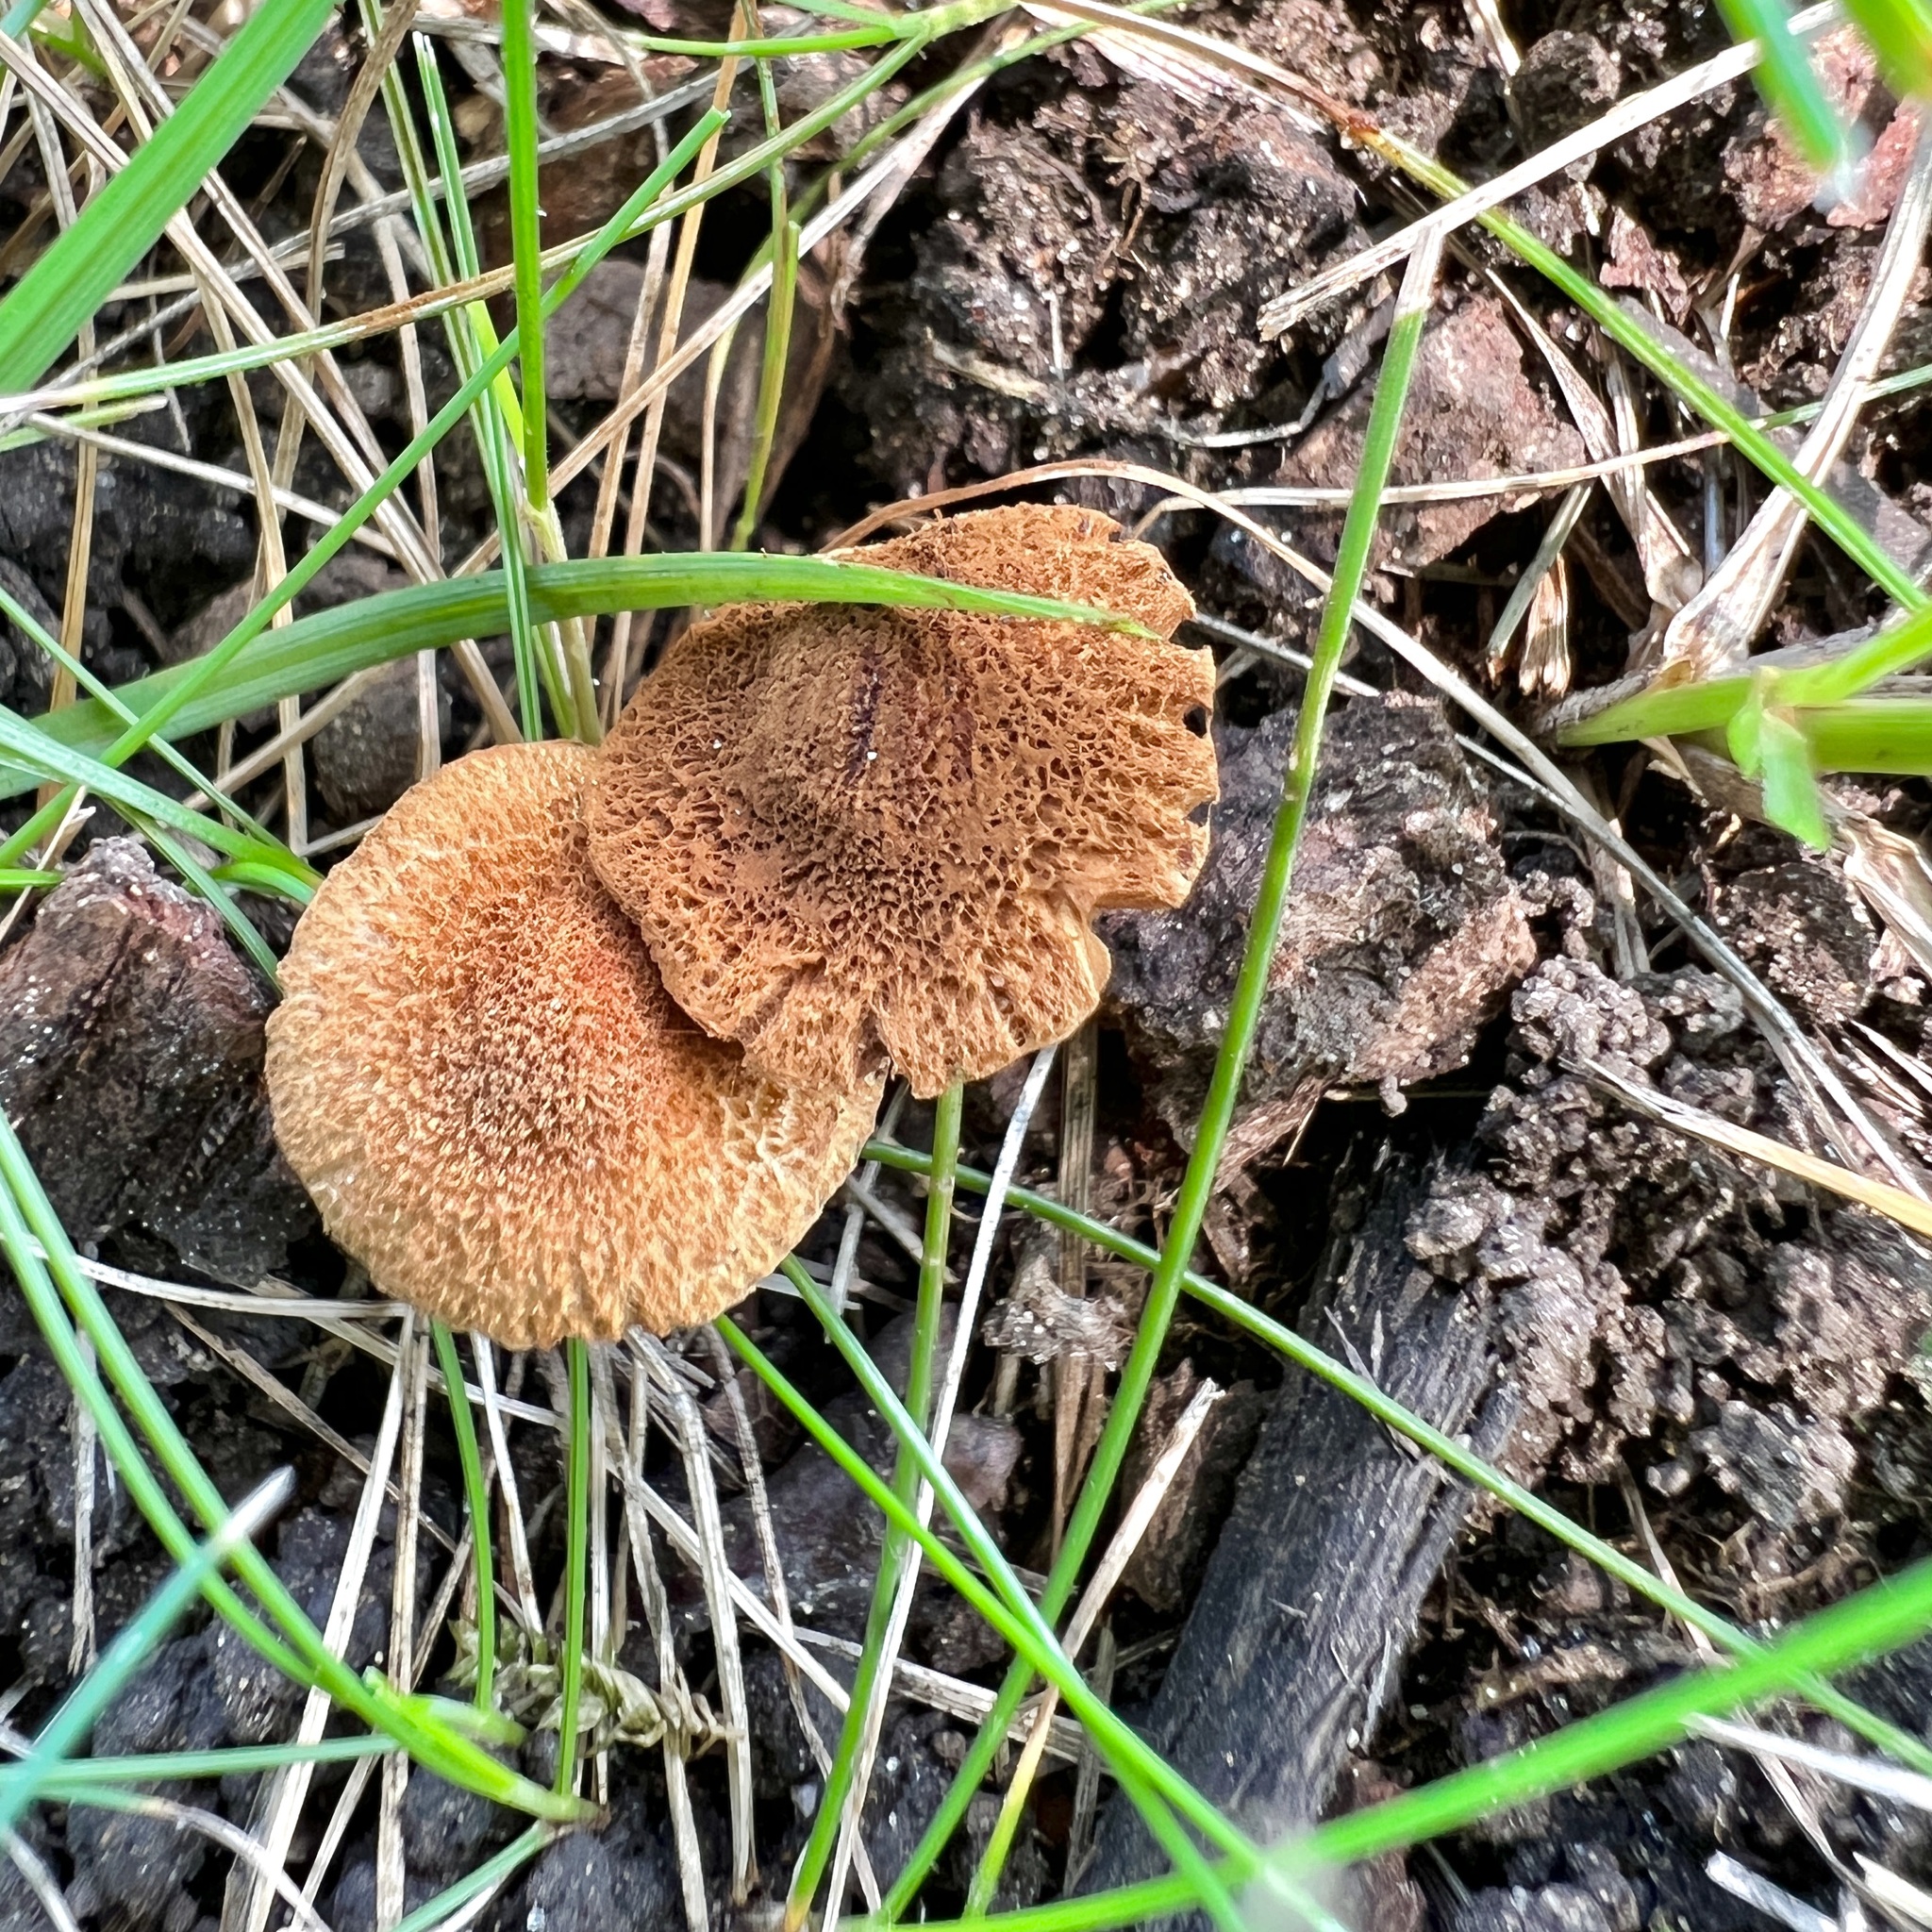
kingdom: Fungi
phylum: Basidiomycota
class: Agaricomycetes
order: Agaricales
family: Inocybaceae
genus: Mallocybe
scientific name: Mallocybe unicolor
